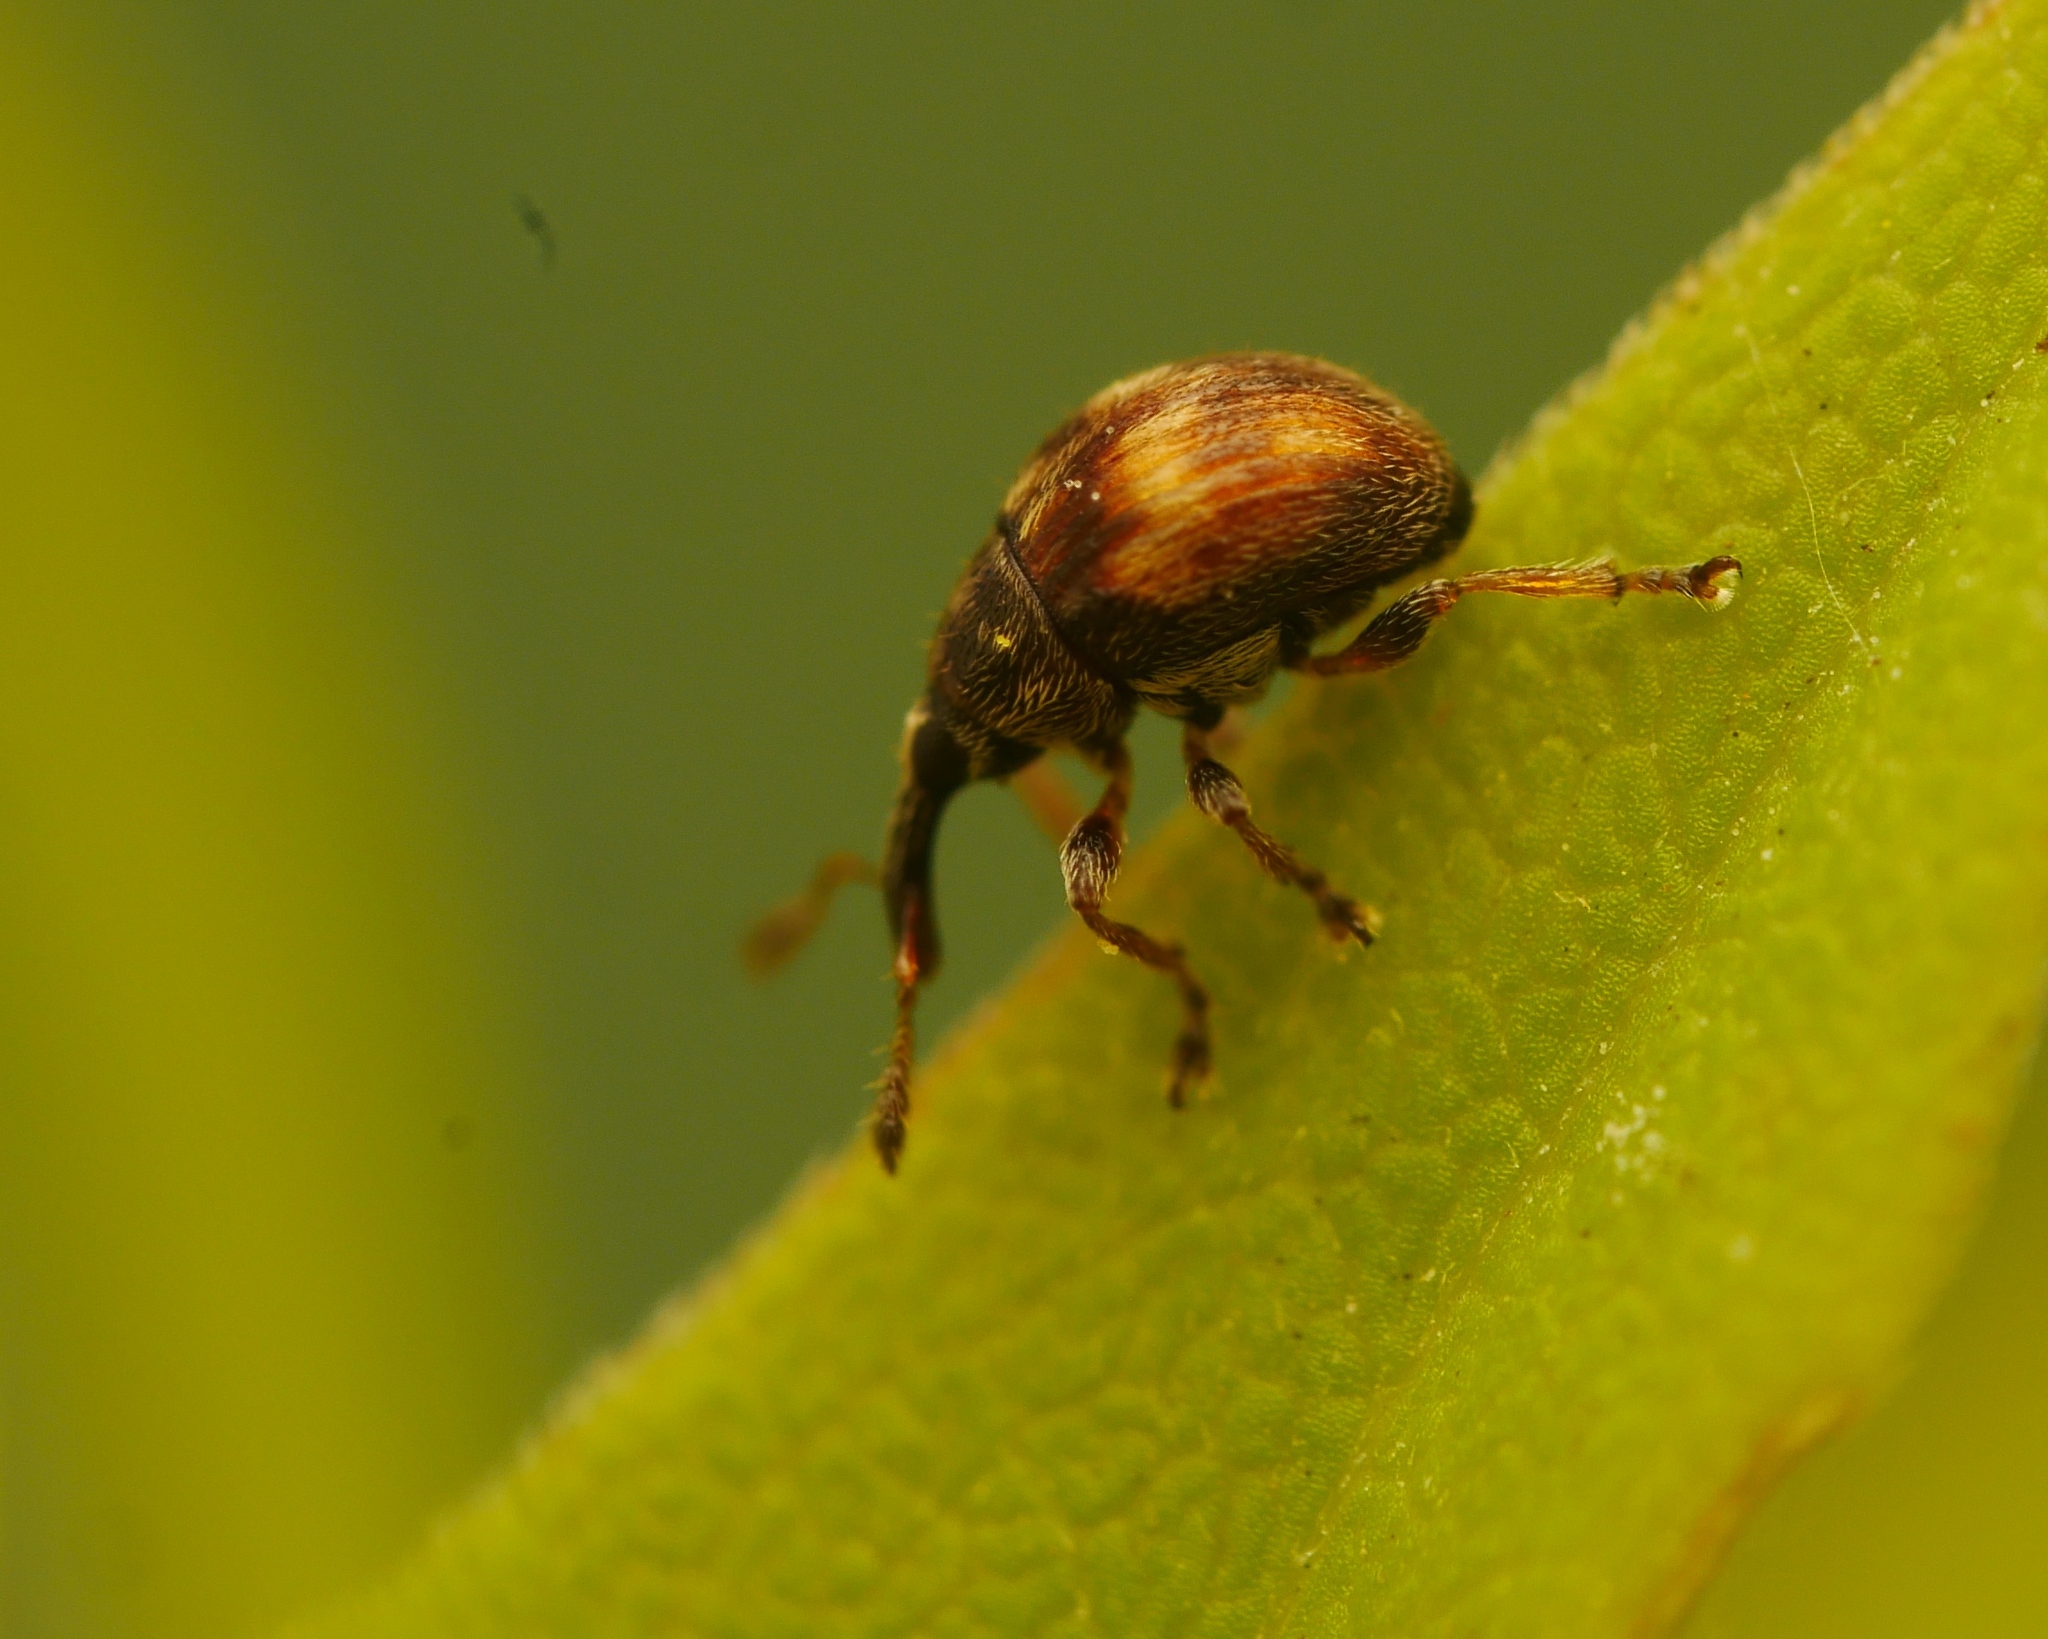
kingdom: Animalia
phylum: Arthropoda
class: Insecta
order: Coleoptera
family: Brentidae
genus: Nanophyes
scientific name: Nanophyes brevis
